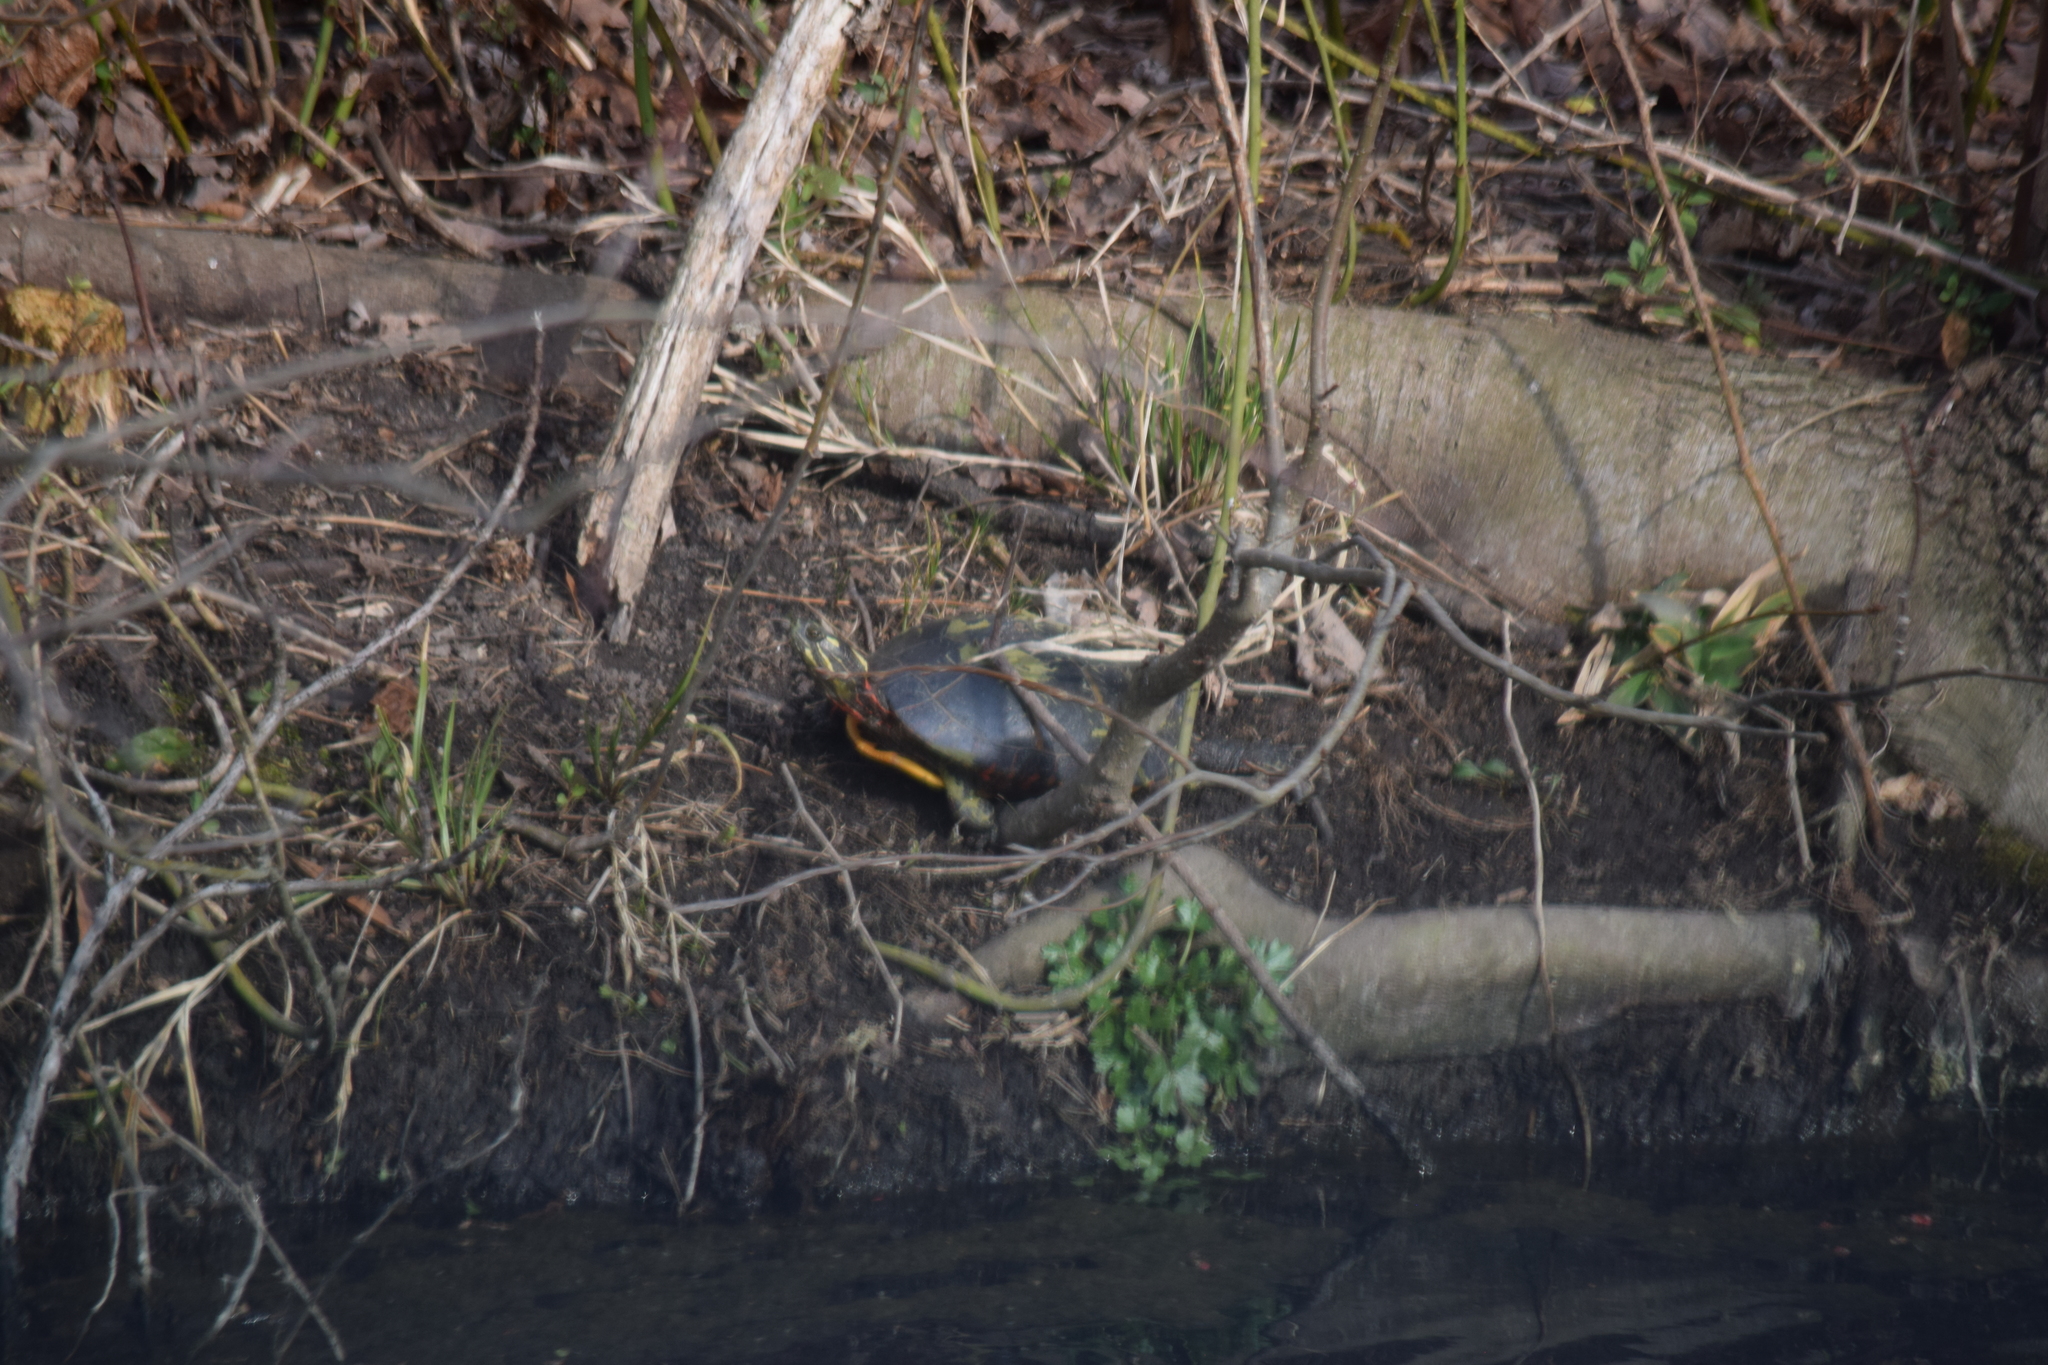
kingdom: Animalia
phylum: Chordata
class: Testudines
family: Emydidae
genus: Chrysemys
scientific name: Chrysemys picta
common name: Painted turtle
